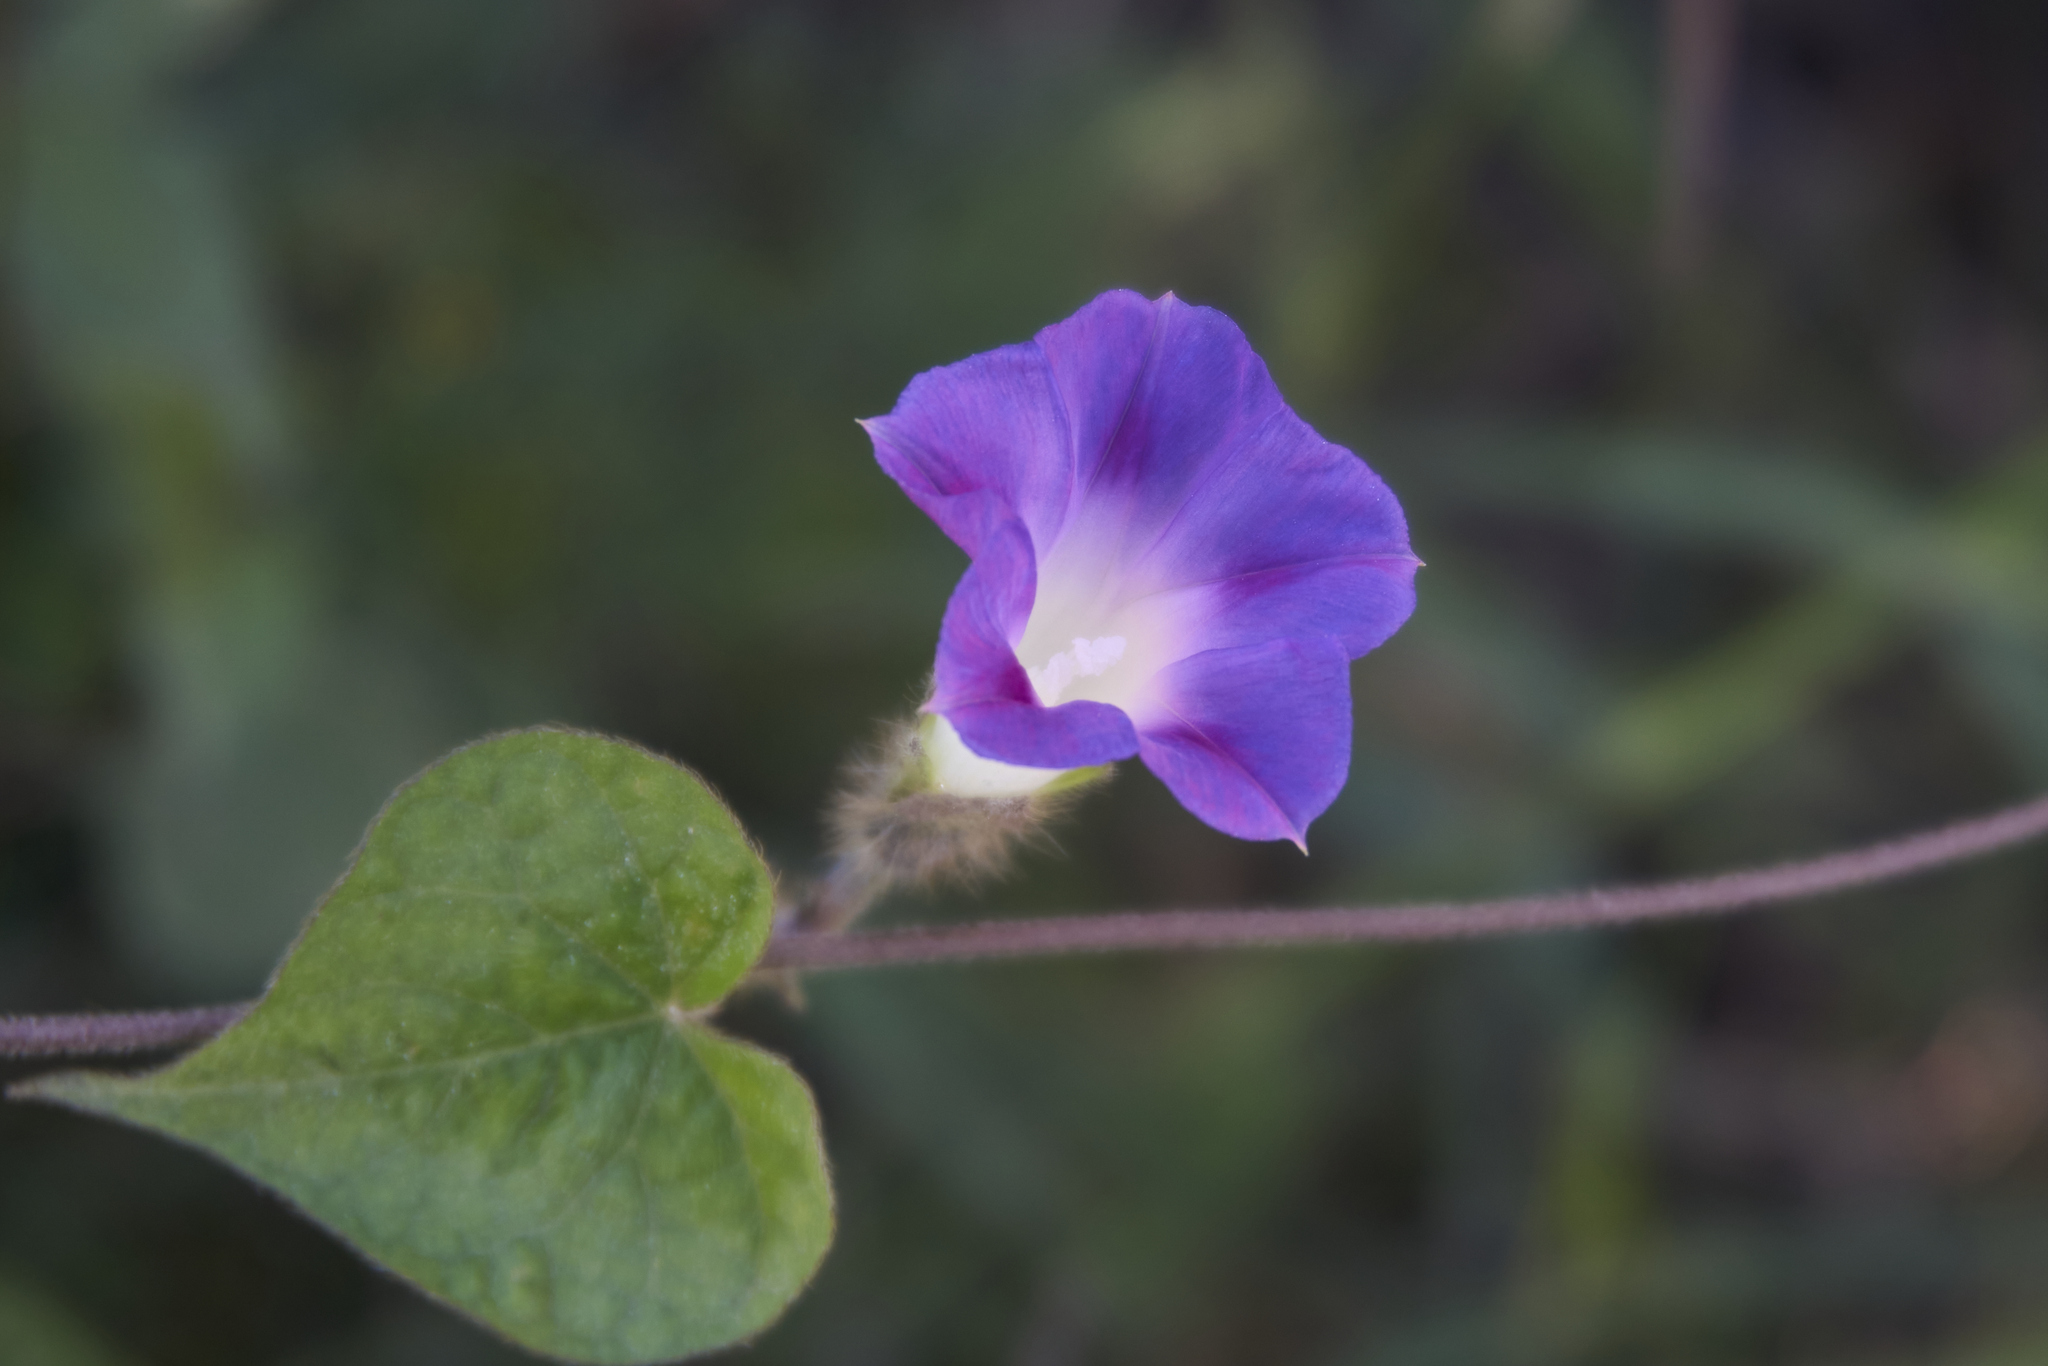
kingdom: Plantae
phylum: Tracheophyta
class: Magnoliopsida
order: Solanales
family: Convolvulaceae
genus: Ipomoea
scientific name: Ipomoea purpurea
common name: Common morning-glory
